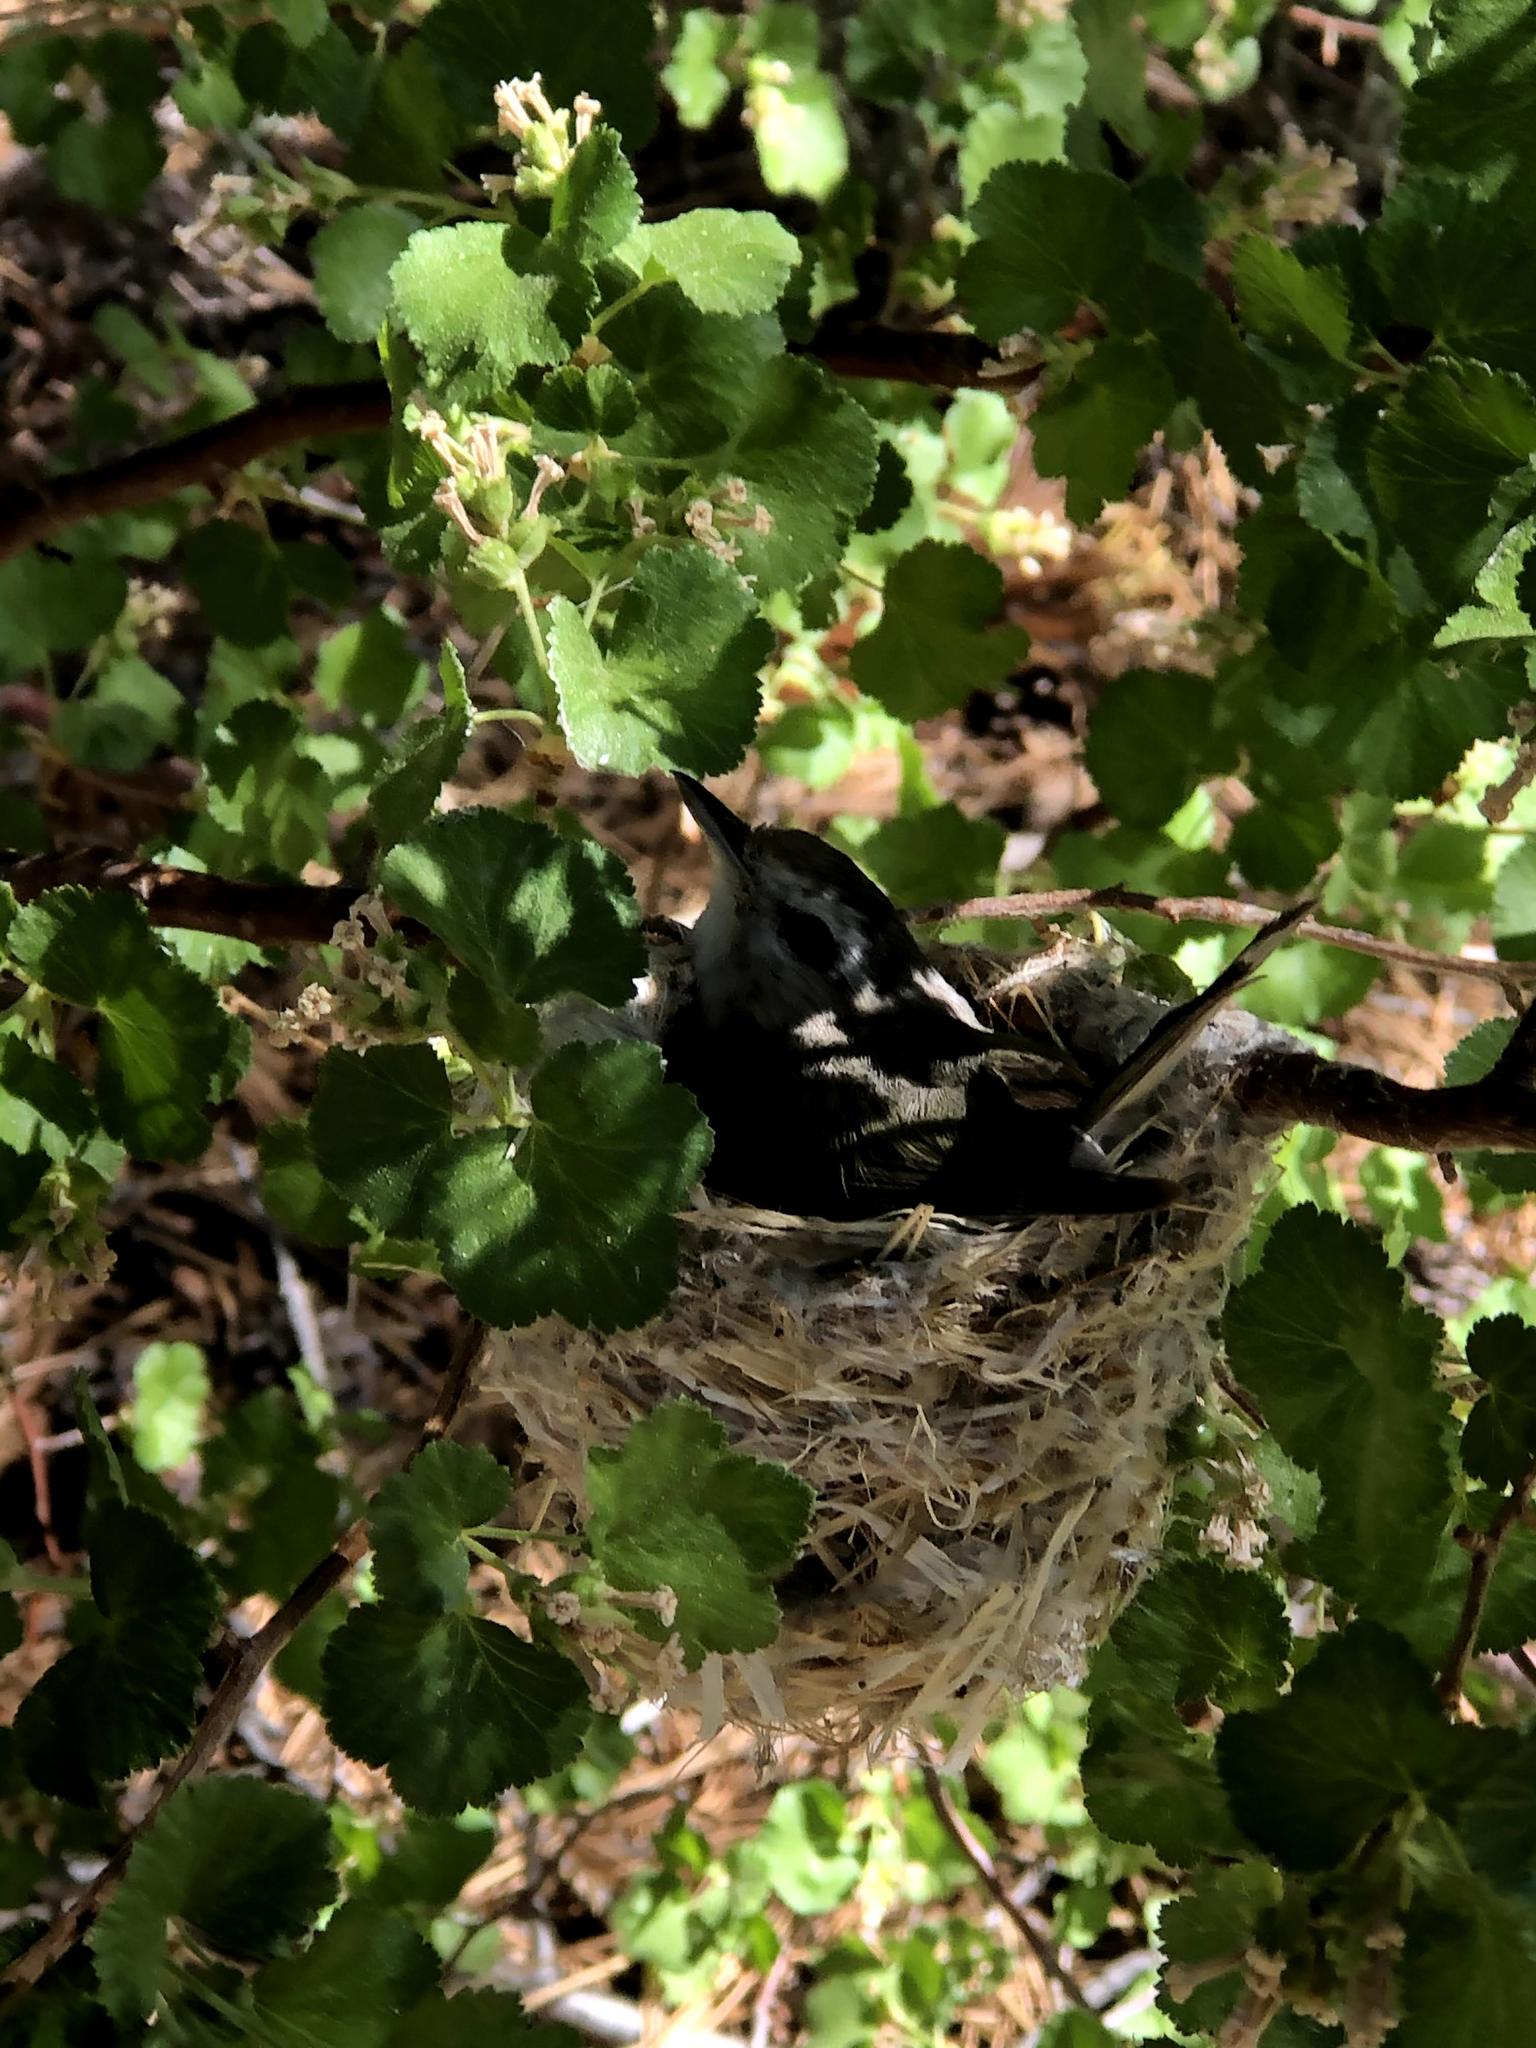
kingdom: Animalia
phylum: Chordata
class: Aves
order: Passeriformes
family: Vireonidae
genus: Vireo
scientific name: Vireo gilvus
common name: Warbling vireo
